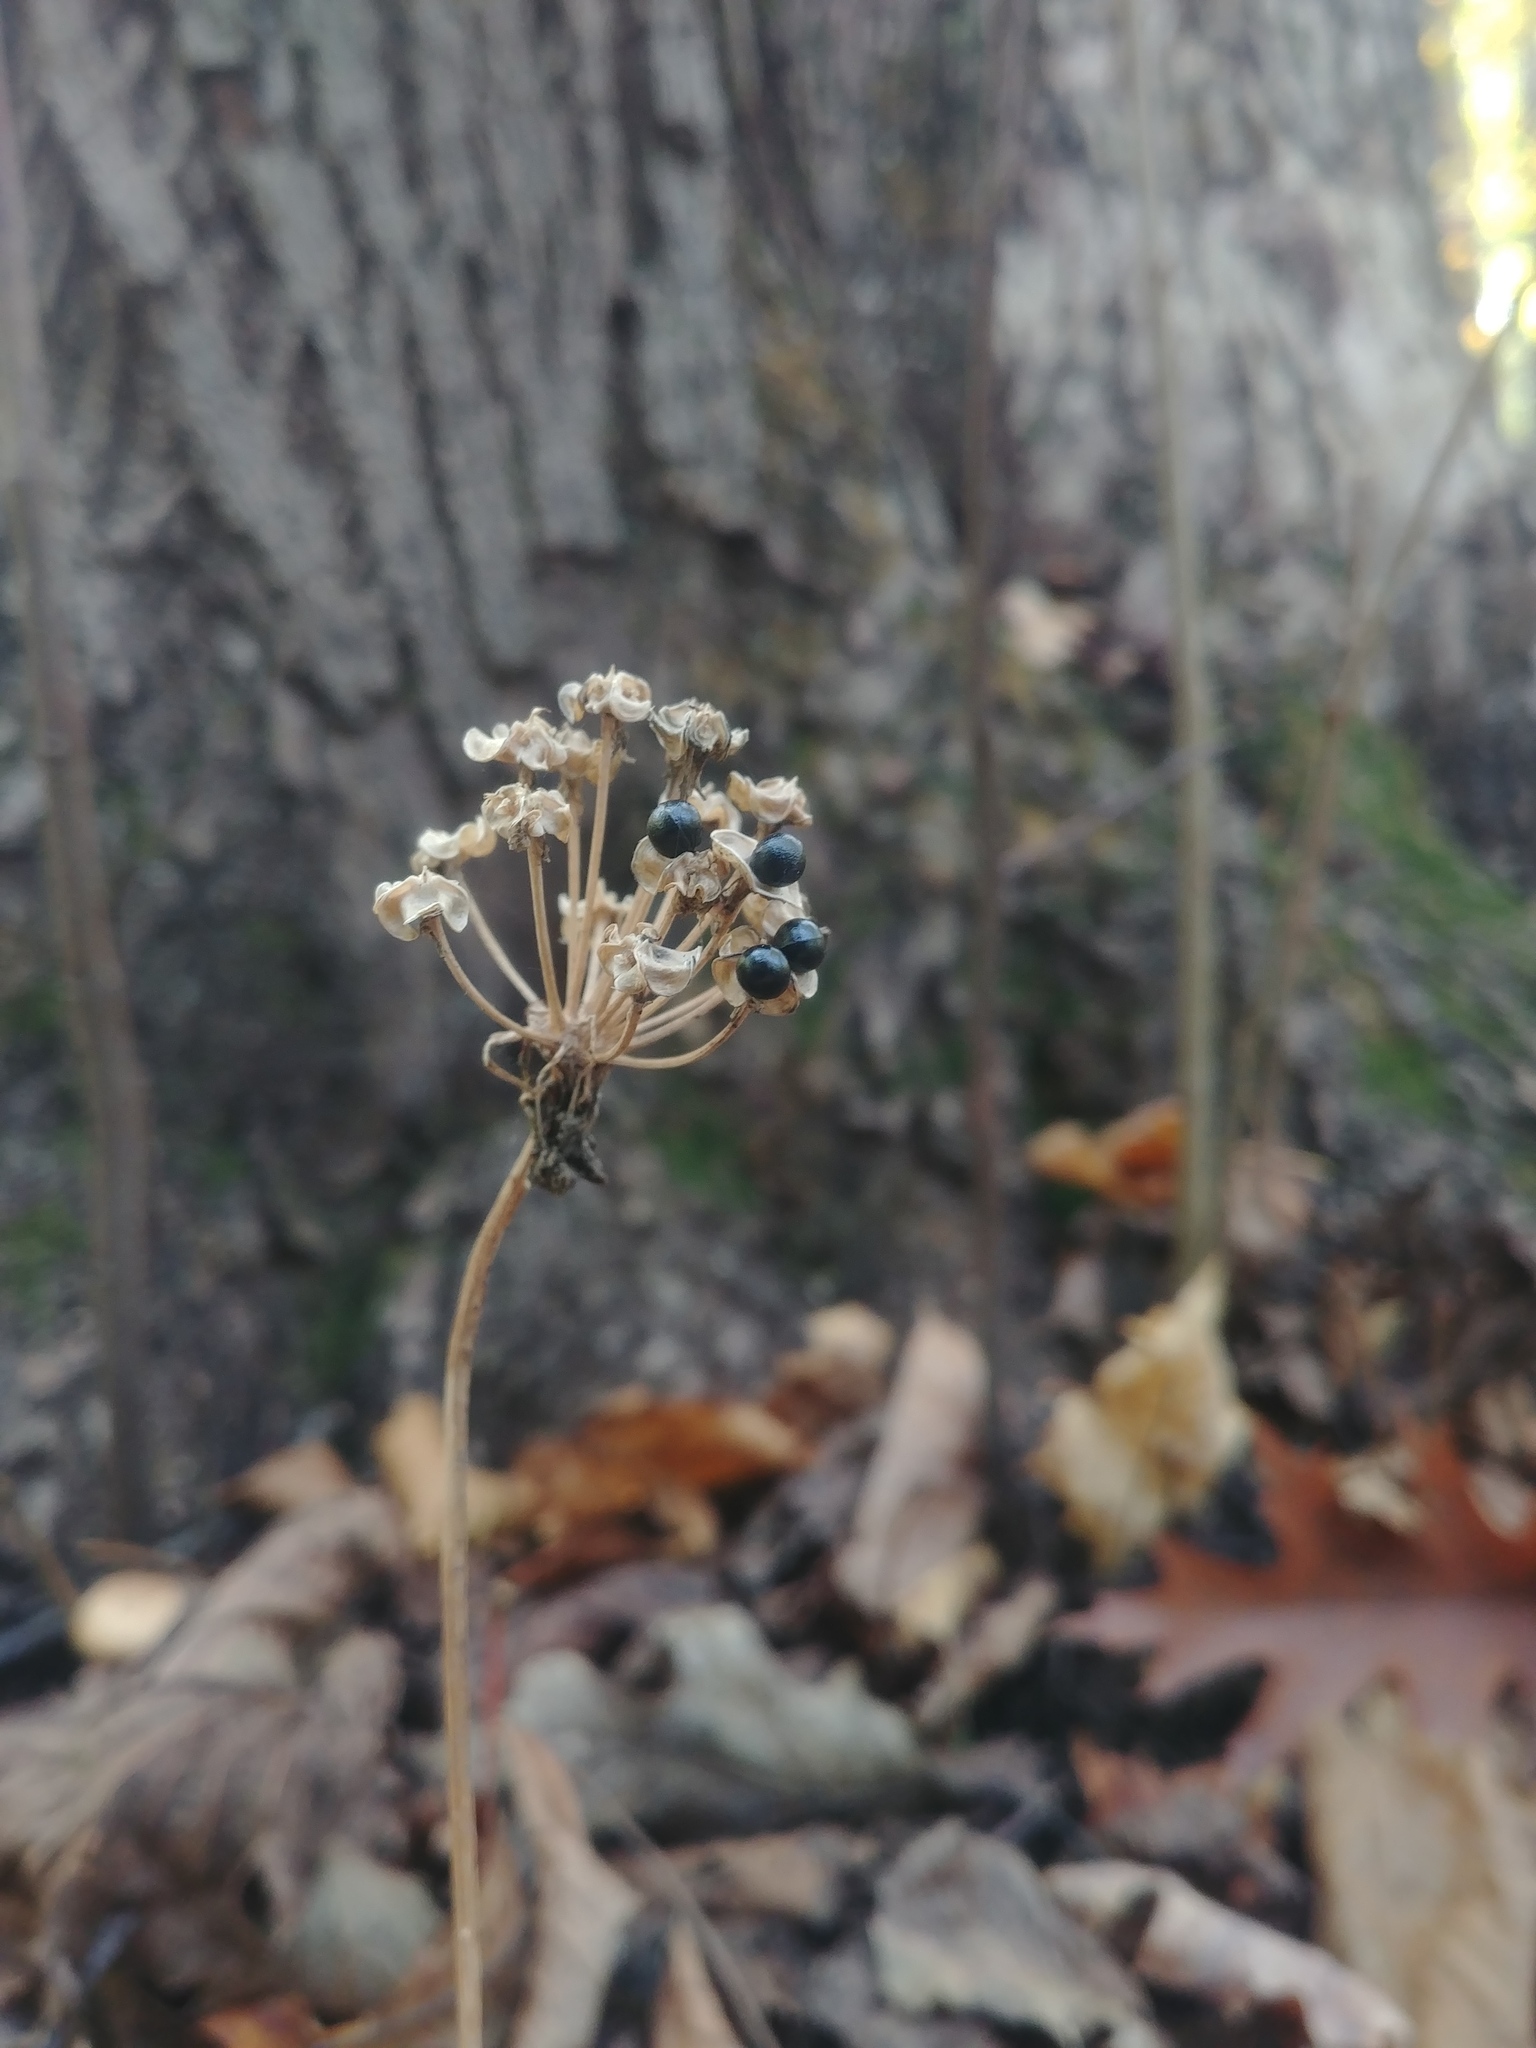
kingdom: Plantae
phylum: Tracheophyta
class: Liliopsida
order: Asparagales
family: Amaryllidaceae
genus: Allium
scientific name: Allium tricoccum
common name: Ramp
